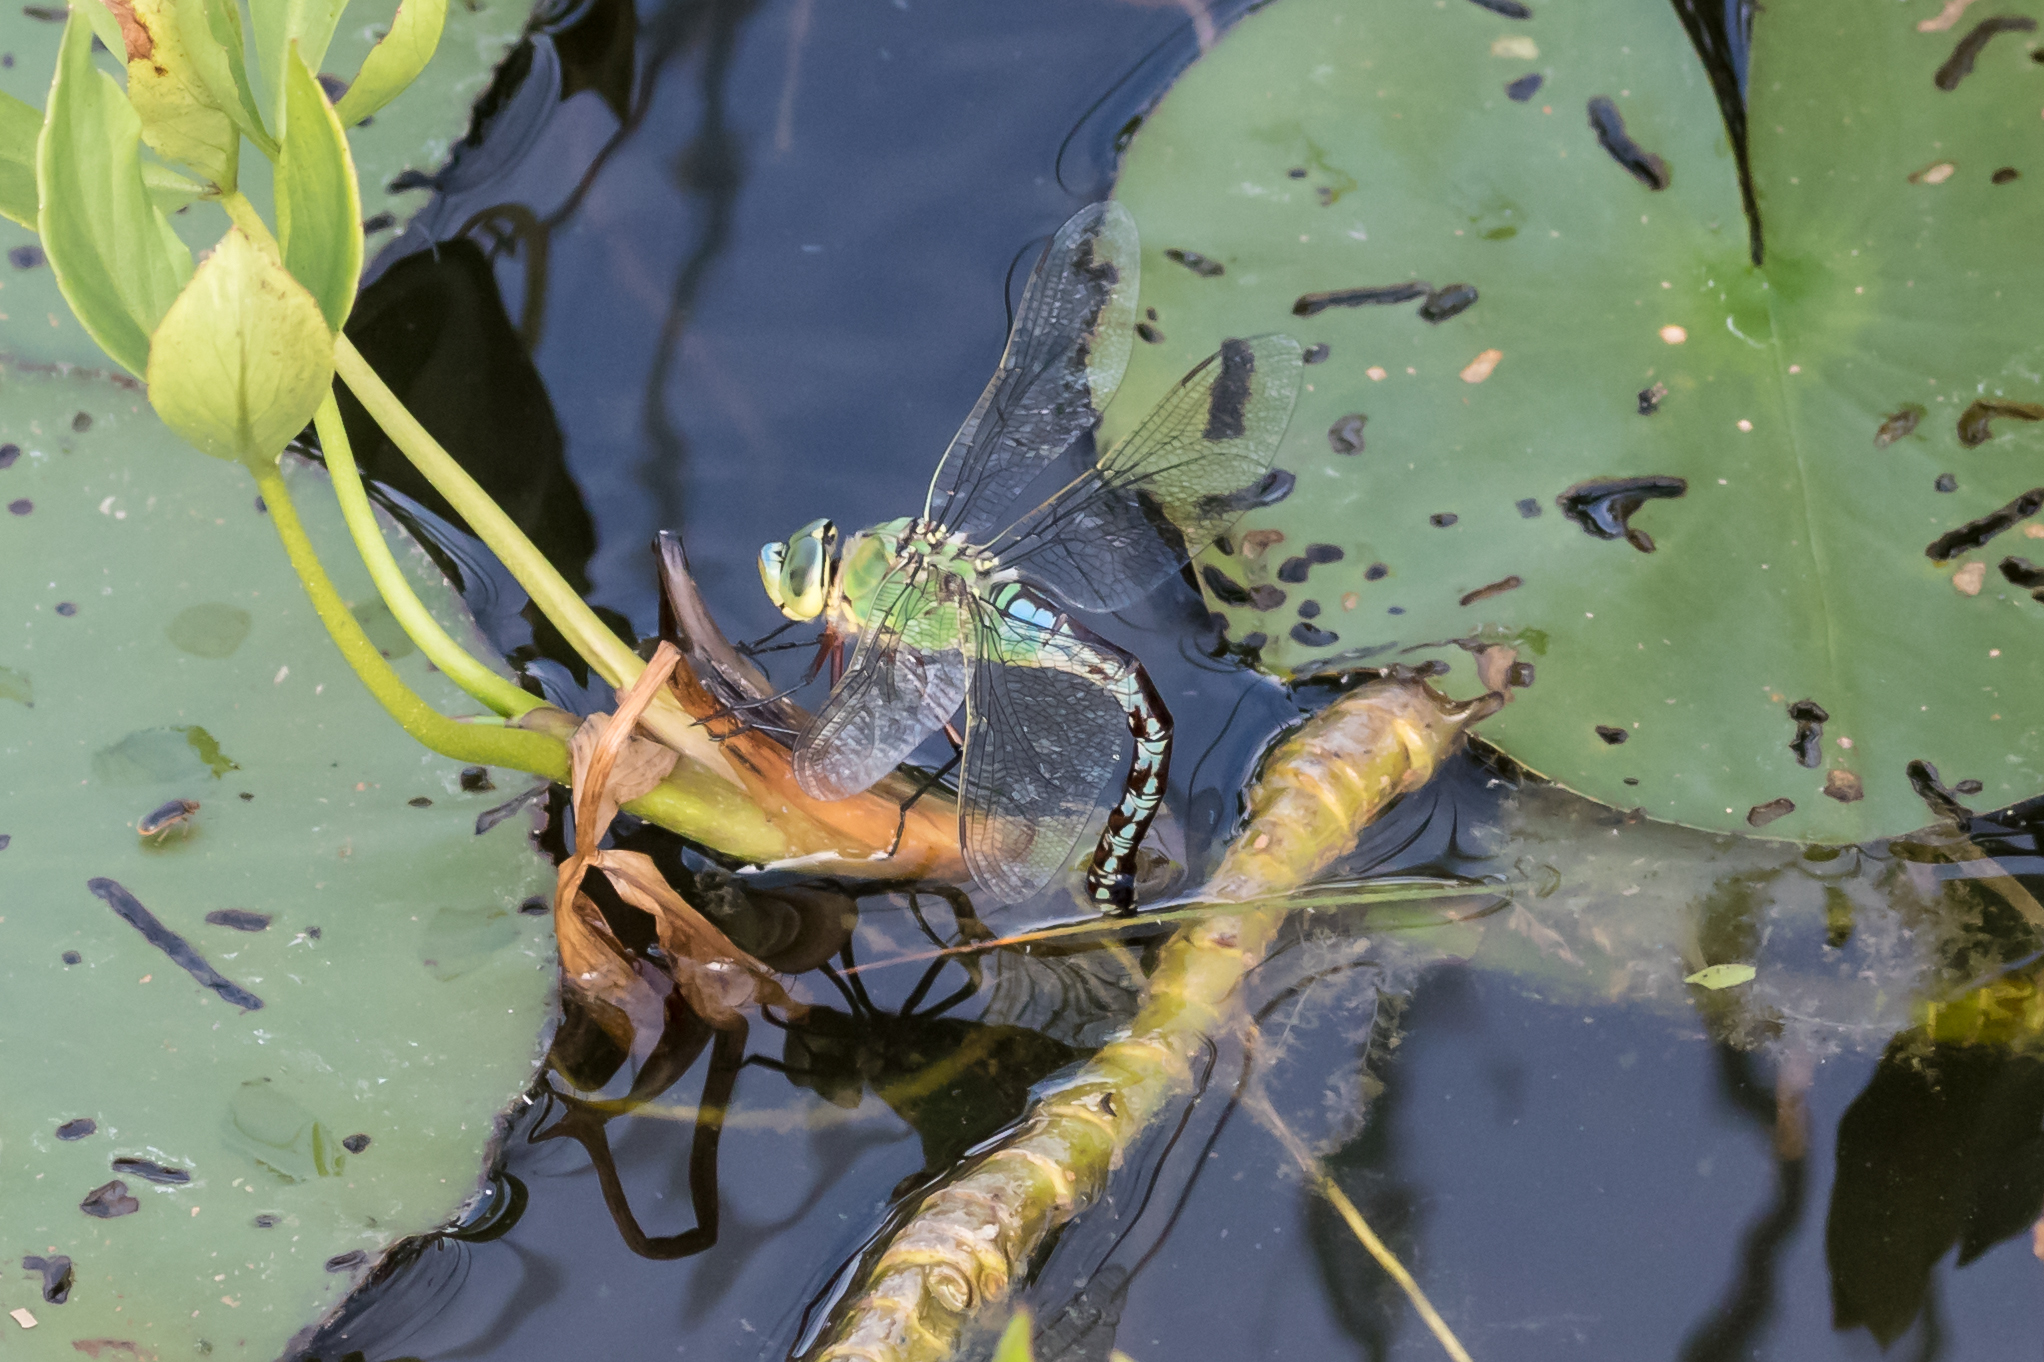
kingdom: Animalia
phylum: Arthropoda
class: Insecta
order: Odonata
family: Aeshnidae
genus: Anax
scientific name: Anax imperator
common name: Emperor dragonfly
